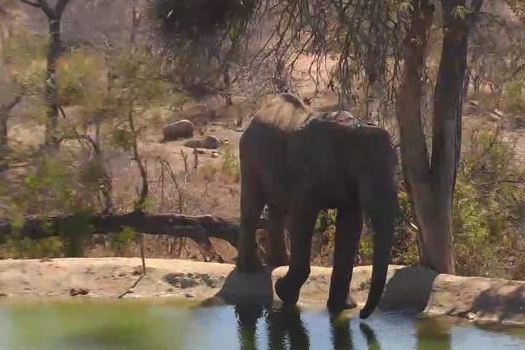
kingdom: Animalia
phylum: Chordata
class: Mammalia
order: Proboscidea
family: Elephantidae
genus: Loxodonta
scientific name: Loxodonta africana
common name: African elephant
